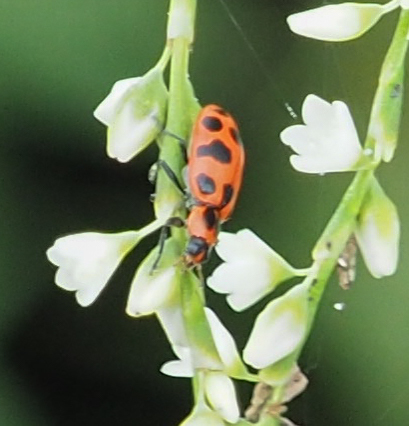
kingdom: Animalia
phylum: Arthropoda
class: Insecta
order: Coleoptera
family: Coccinellidae
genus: Coleomegilla
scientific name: Coleomegilla maculata
